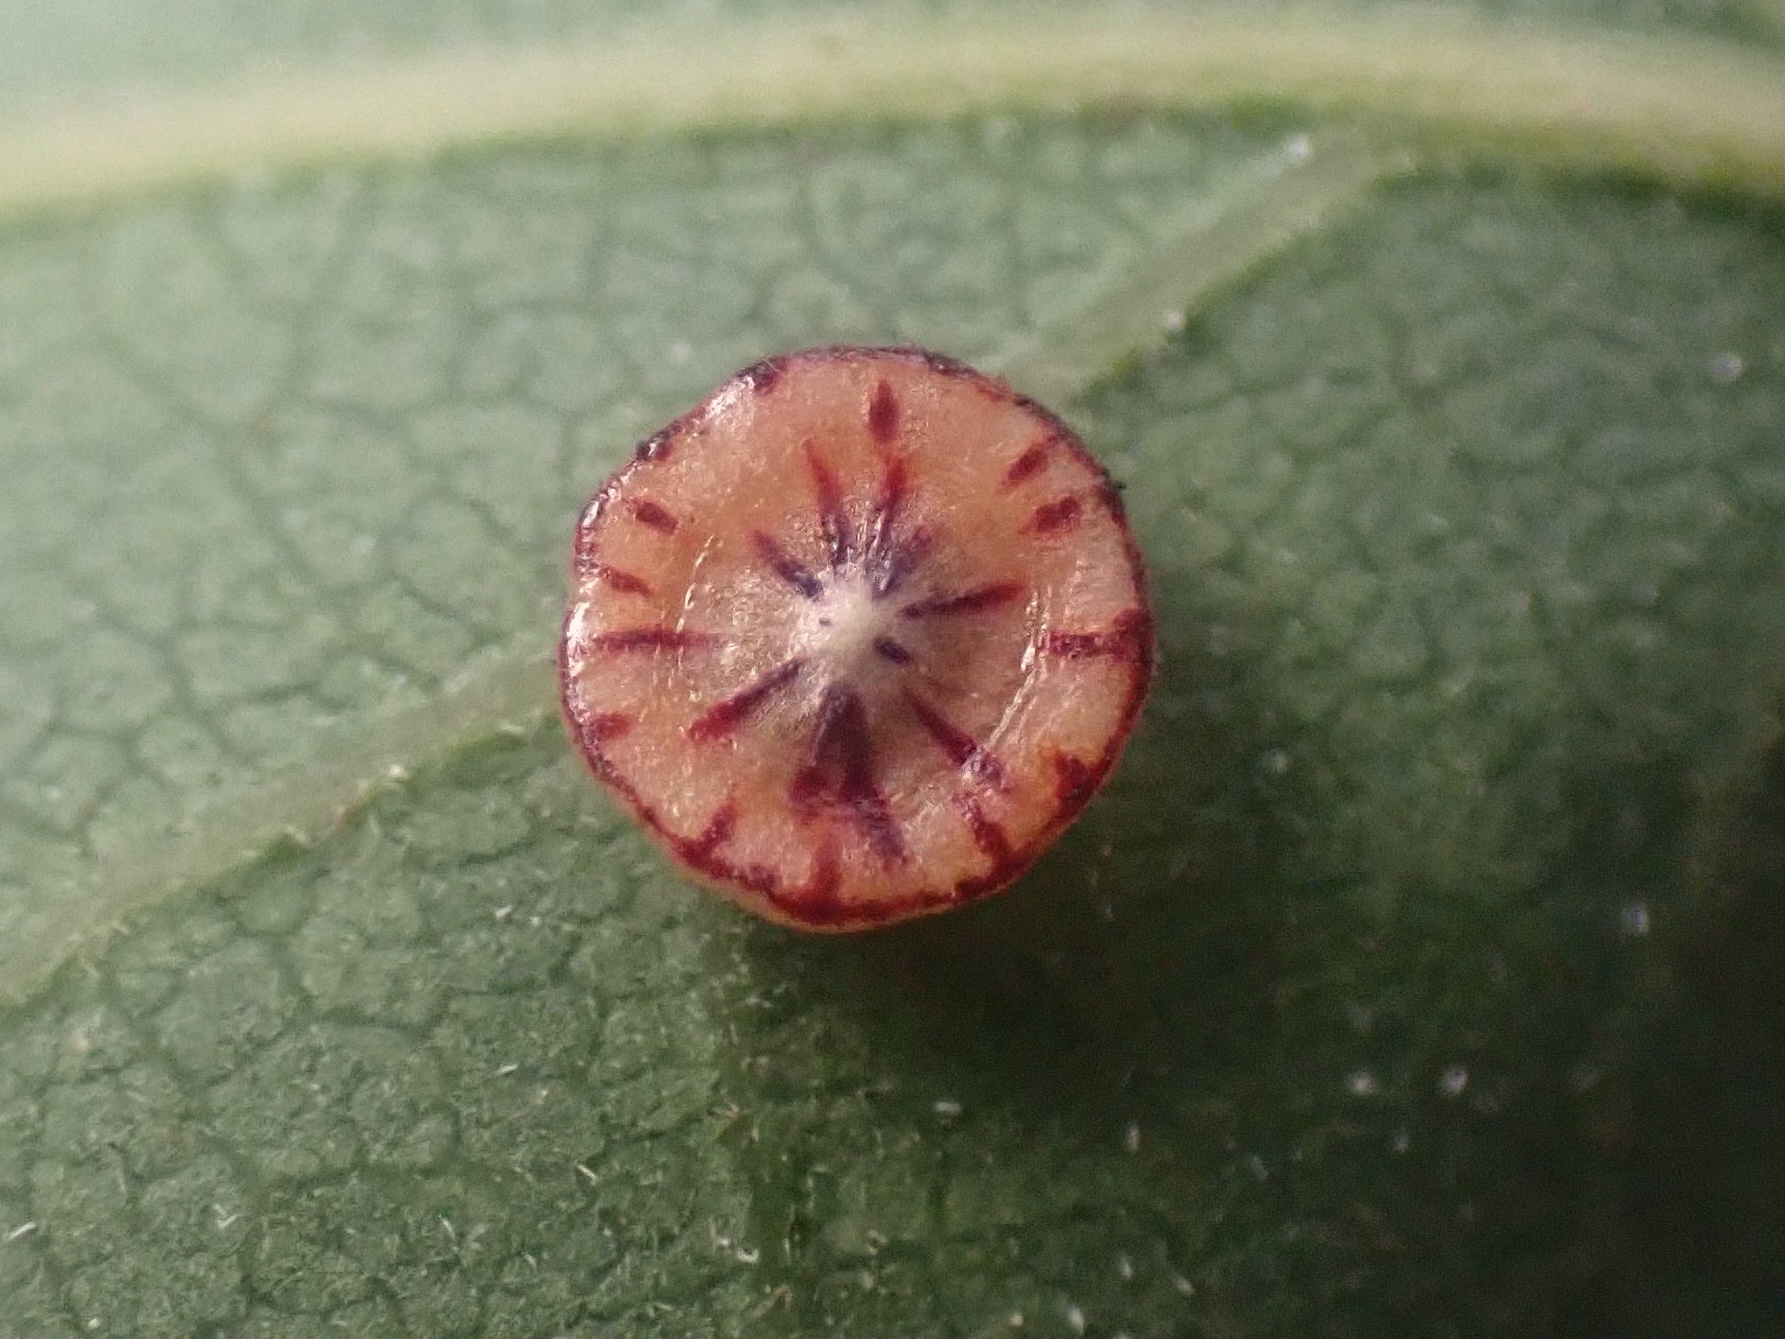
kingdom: Animalia
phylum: Arthropoda
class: Insecta
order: Hymenoptera
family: Cynipidae
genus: Andricus
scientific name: Andricus
